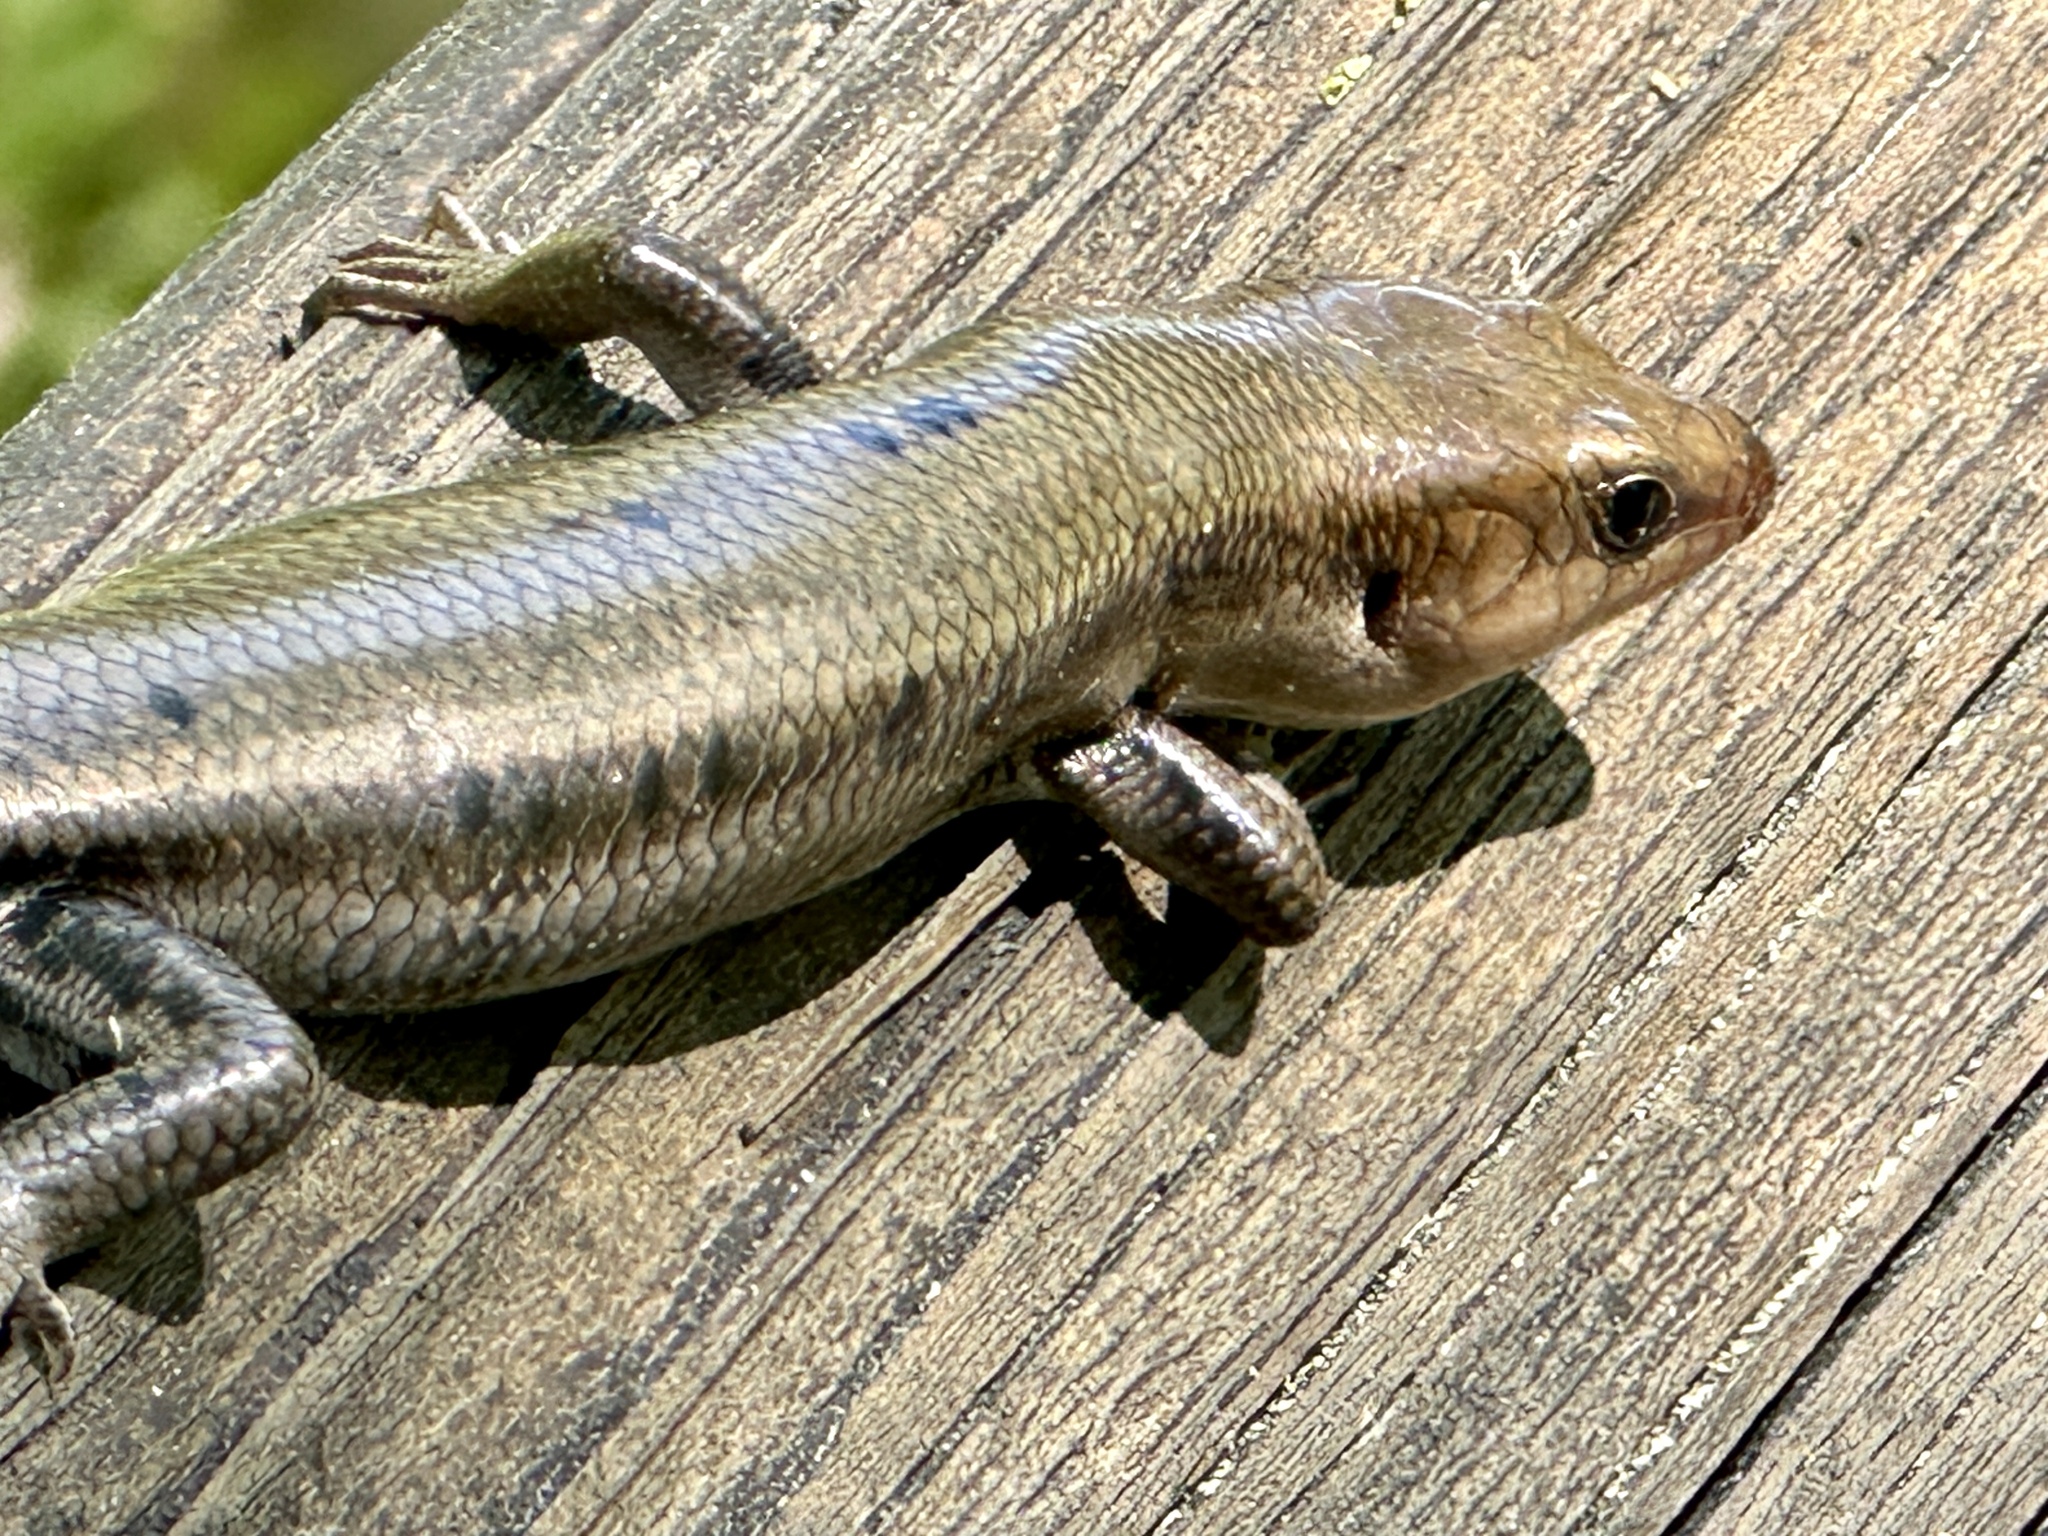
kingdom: Animalia
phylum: Chordata
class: Squamata
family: Scincidae
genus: Plestiodon
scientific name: Plestiodon fasciatus
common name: Five-lined skink
